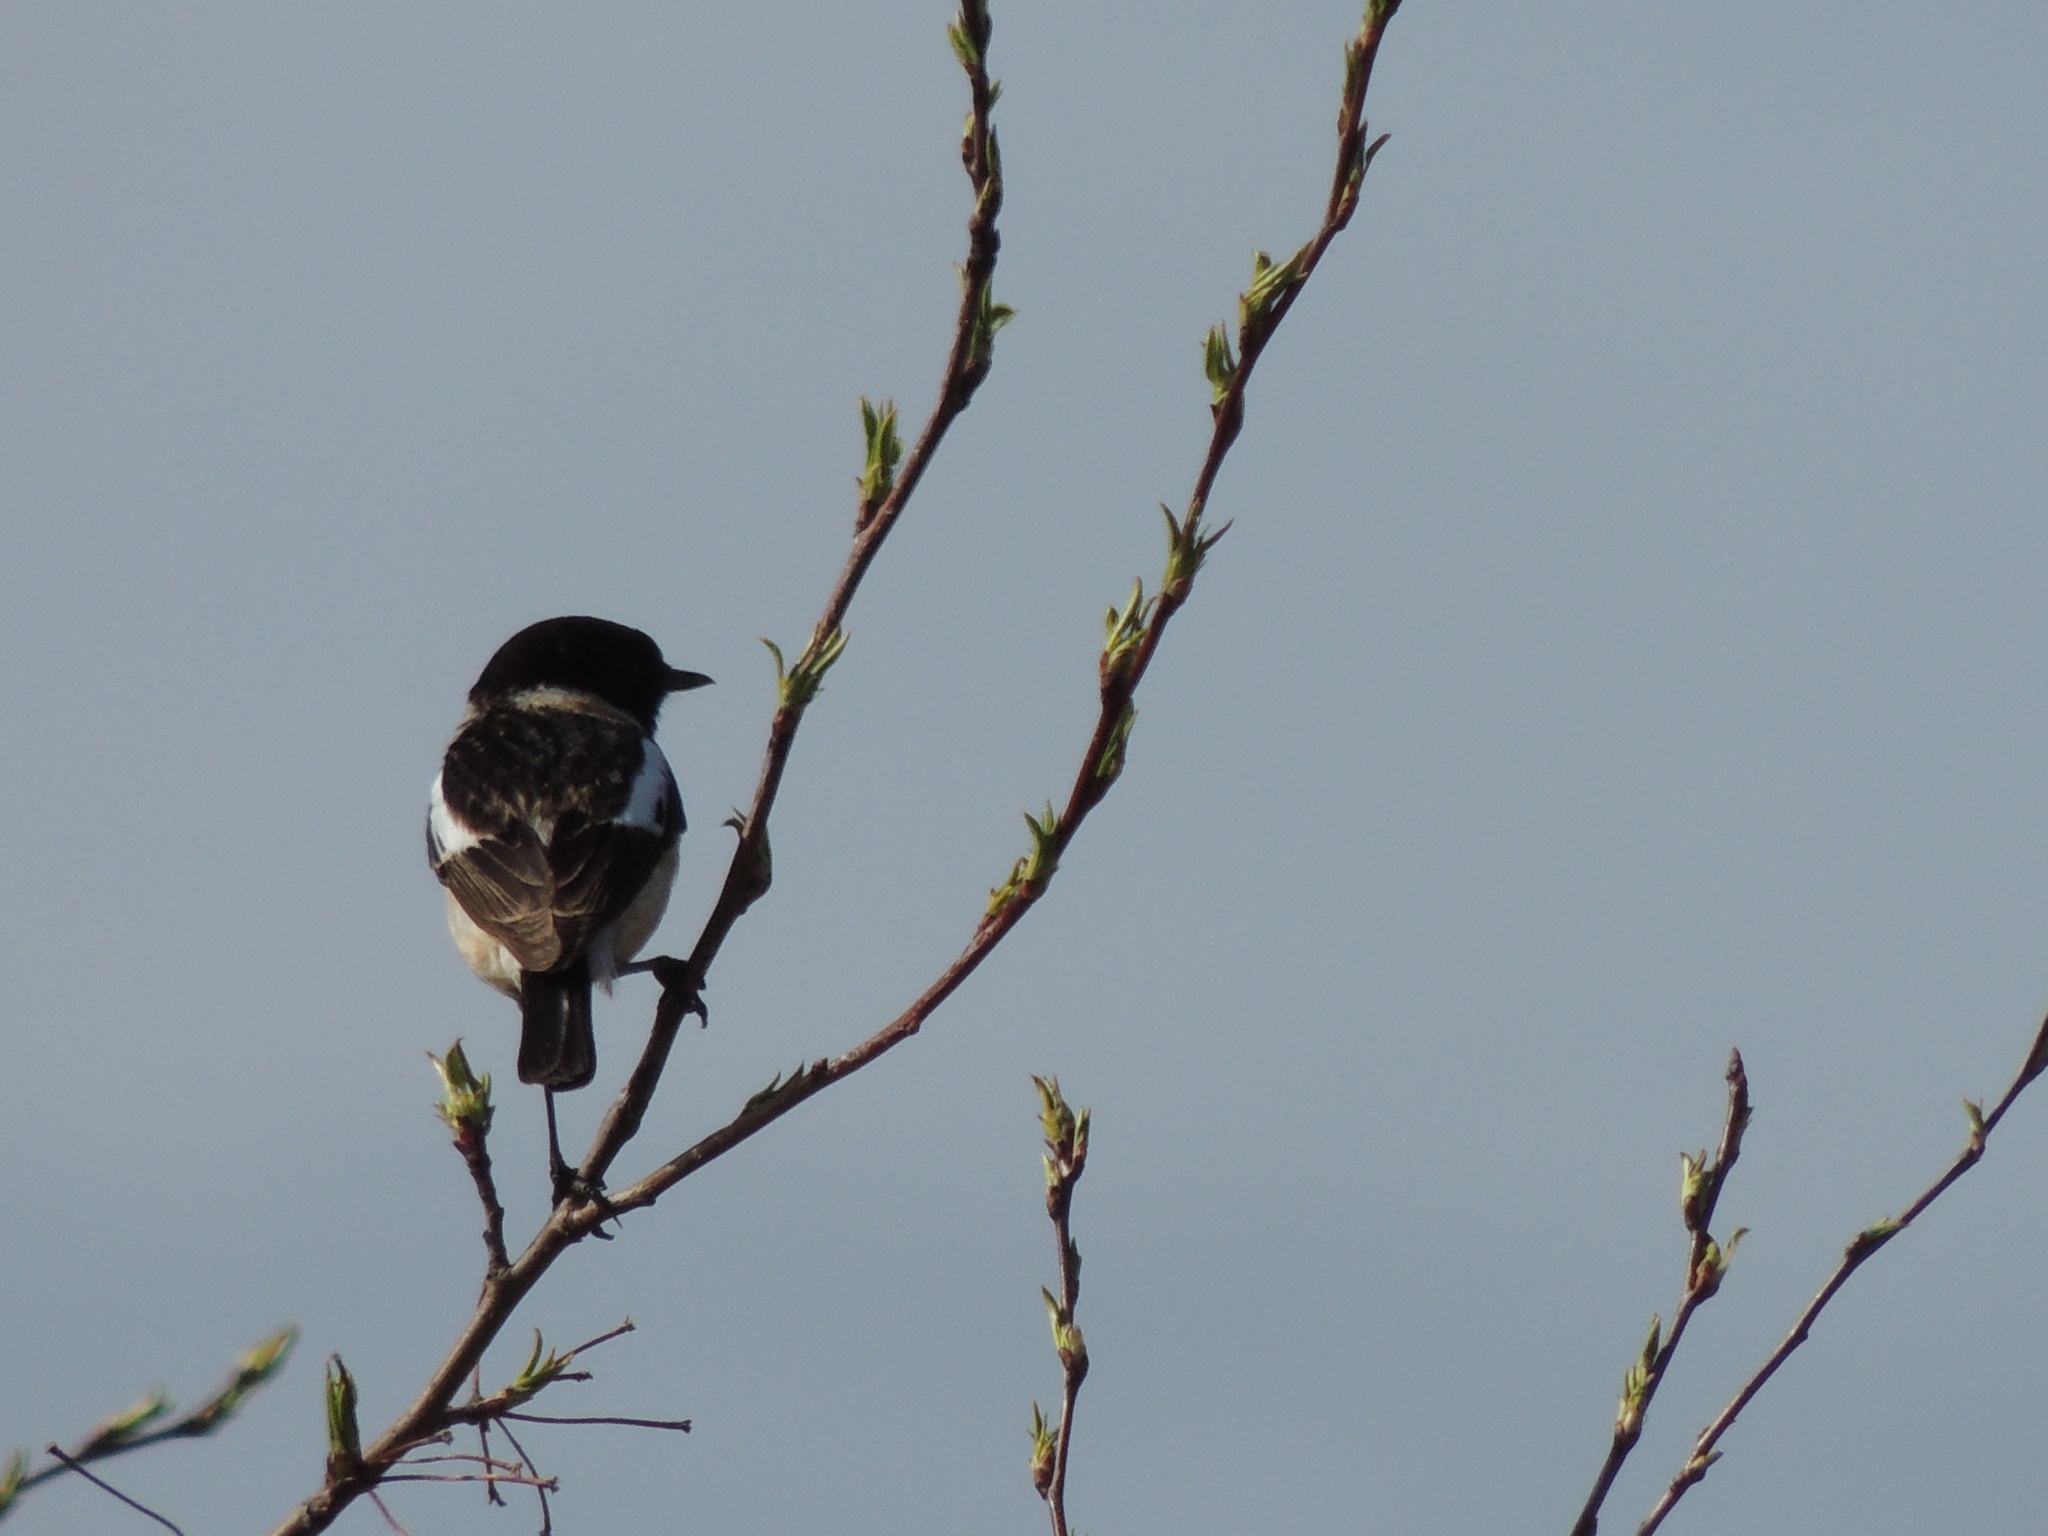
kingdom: Animalia
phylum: Chordata
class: Aves
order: Passeriformes
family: Muscicapidae
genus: Saxicola
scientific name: Saxicola maurus
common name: Siberian stonechat
